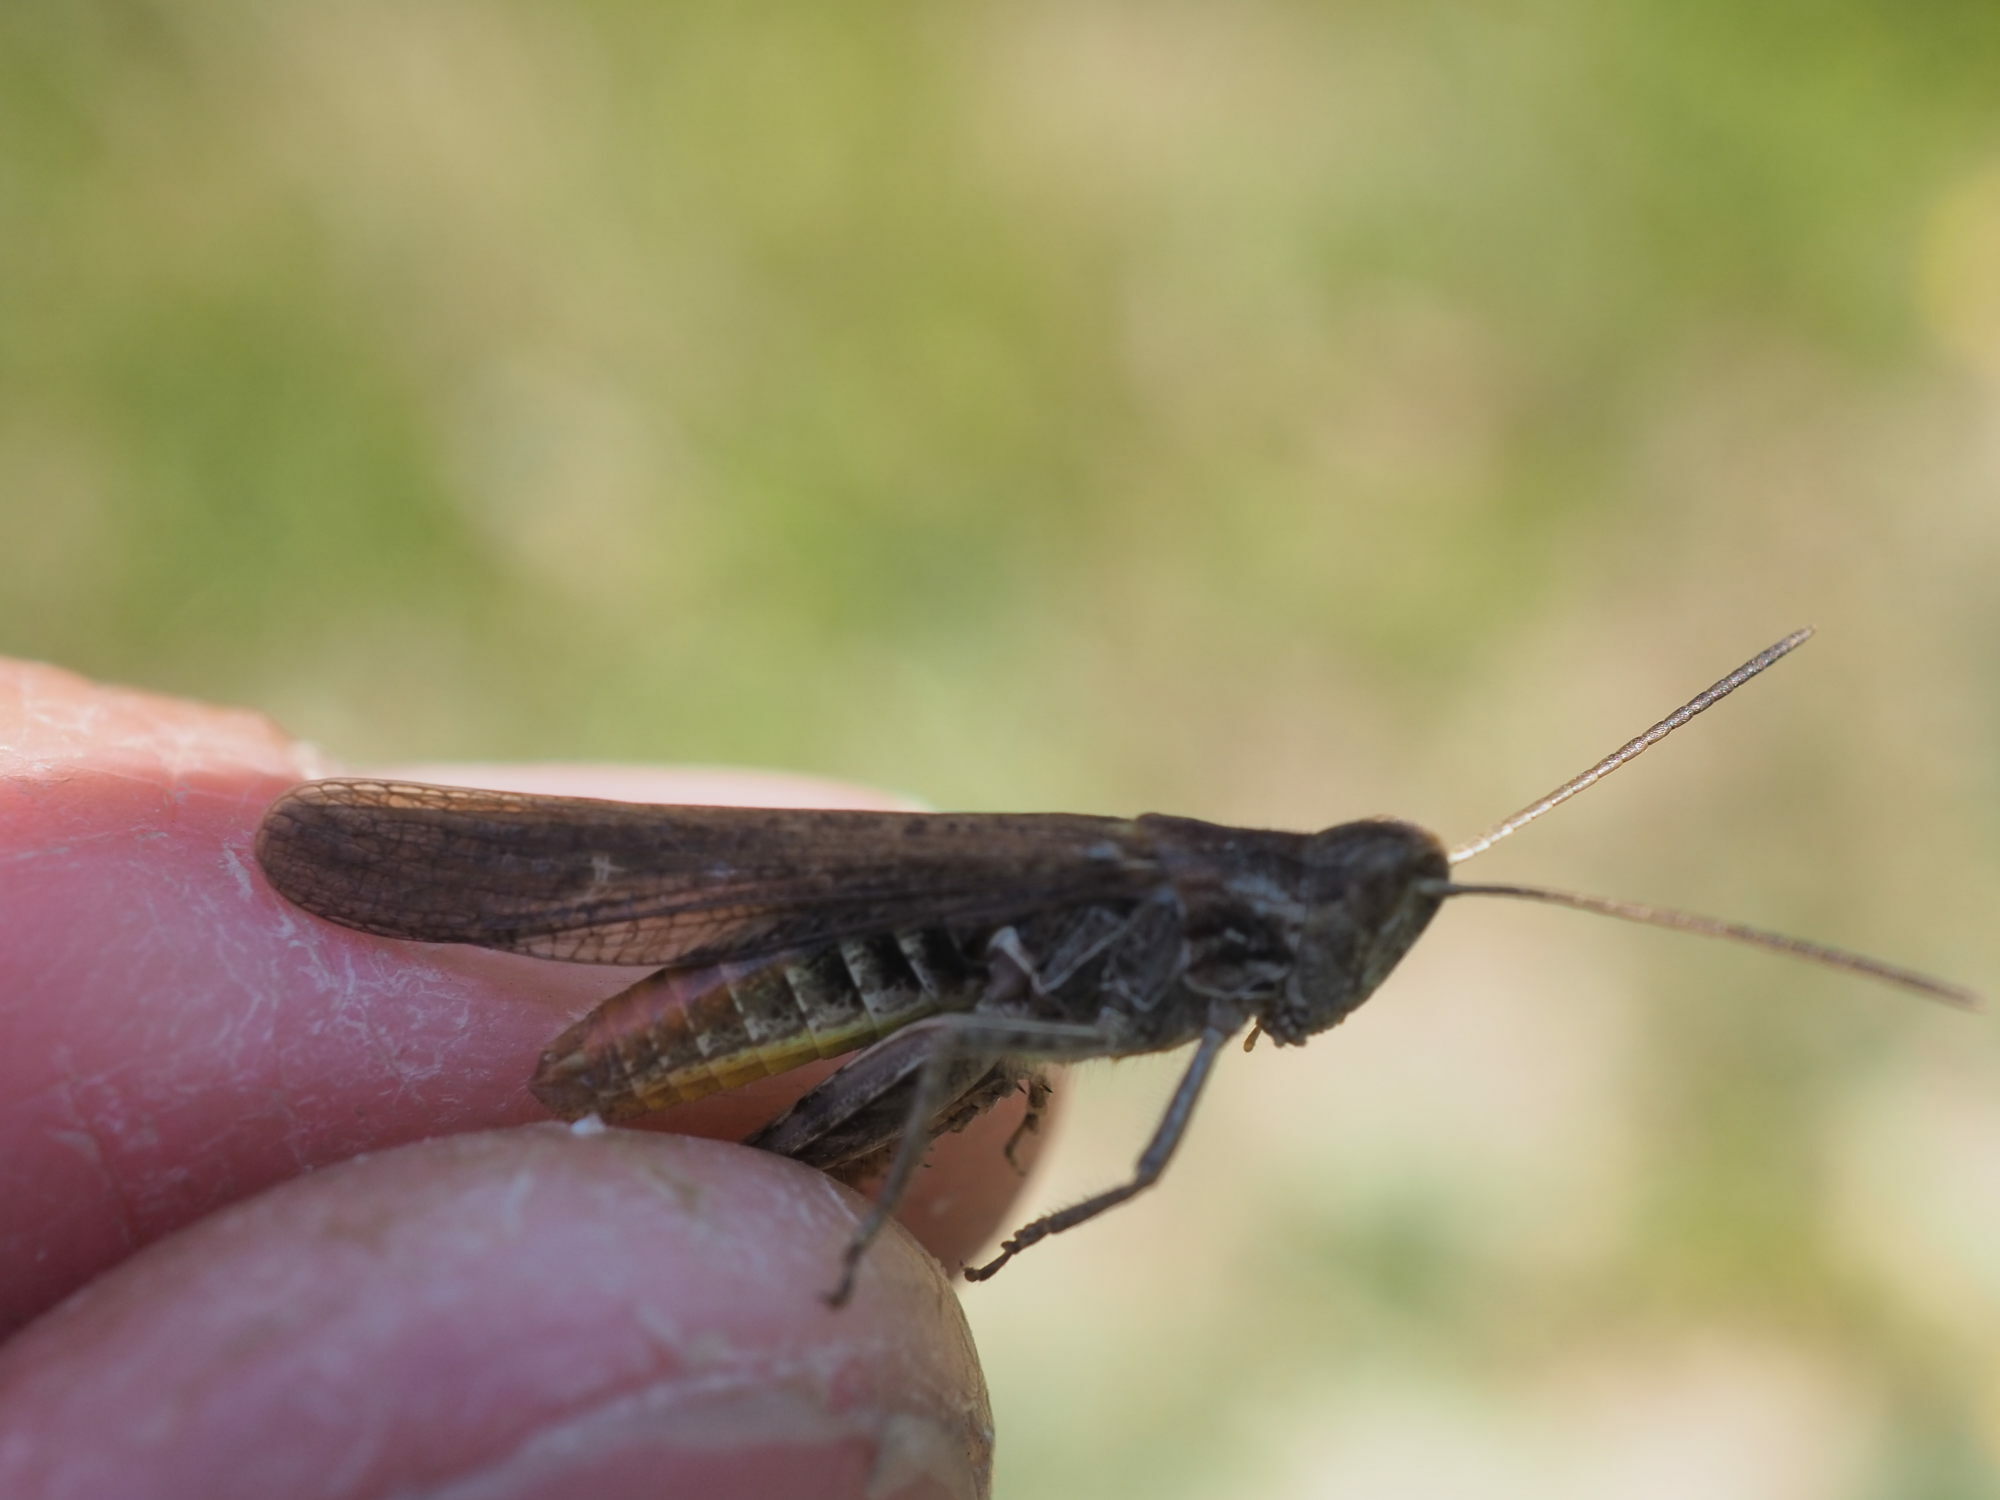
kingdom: Animalia
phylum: Arthropoda
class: Insecta
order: Orthoptera
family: Acrididae
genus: Chorthippus
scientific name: Chorthippus brunneus
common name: Field grasshopper
